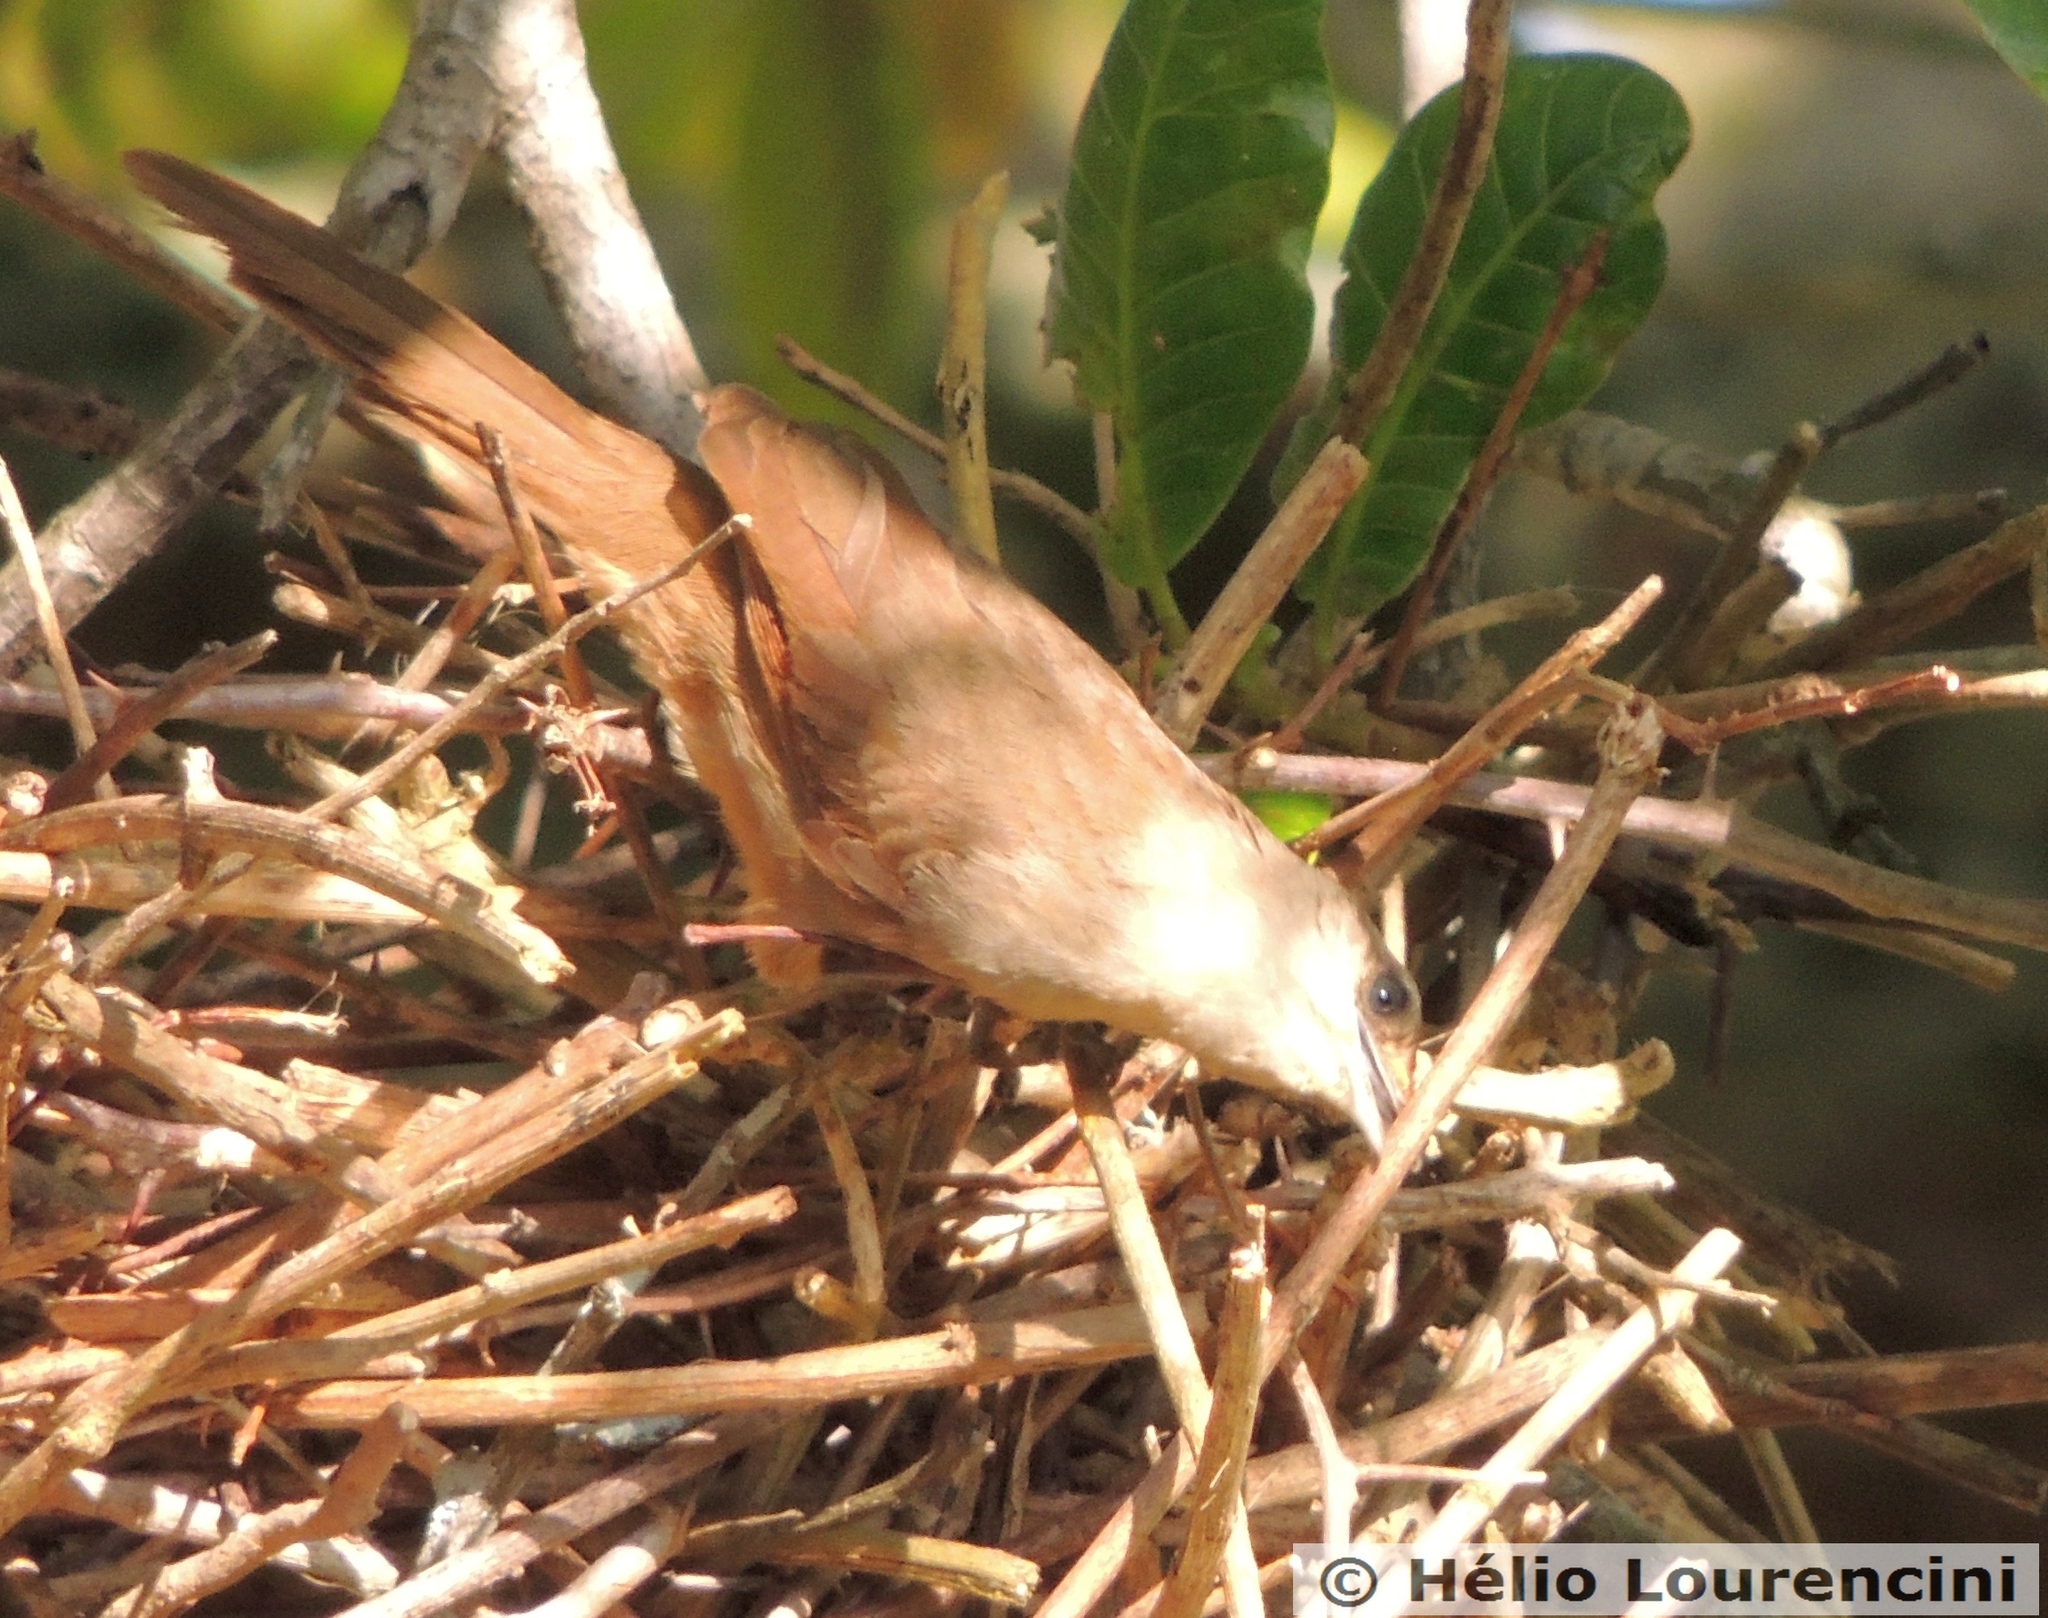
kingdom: Animalia
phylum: Chordata
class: Aves
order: Passeriformes
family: Furnariidae
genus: Phacellodomus
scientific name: Phacellodomus rufifrons
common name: Rufous-fronted thornbird
